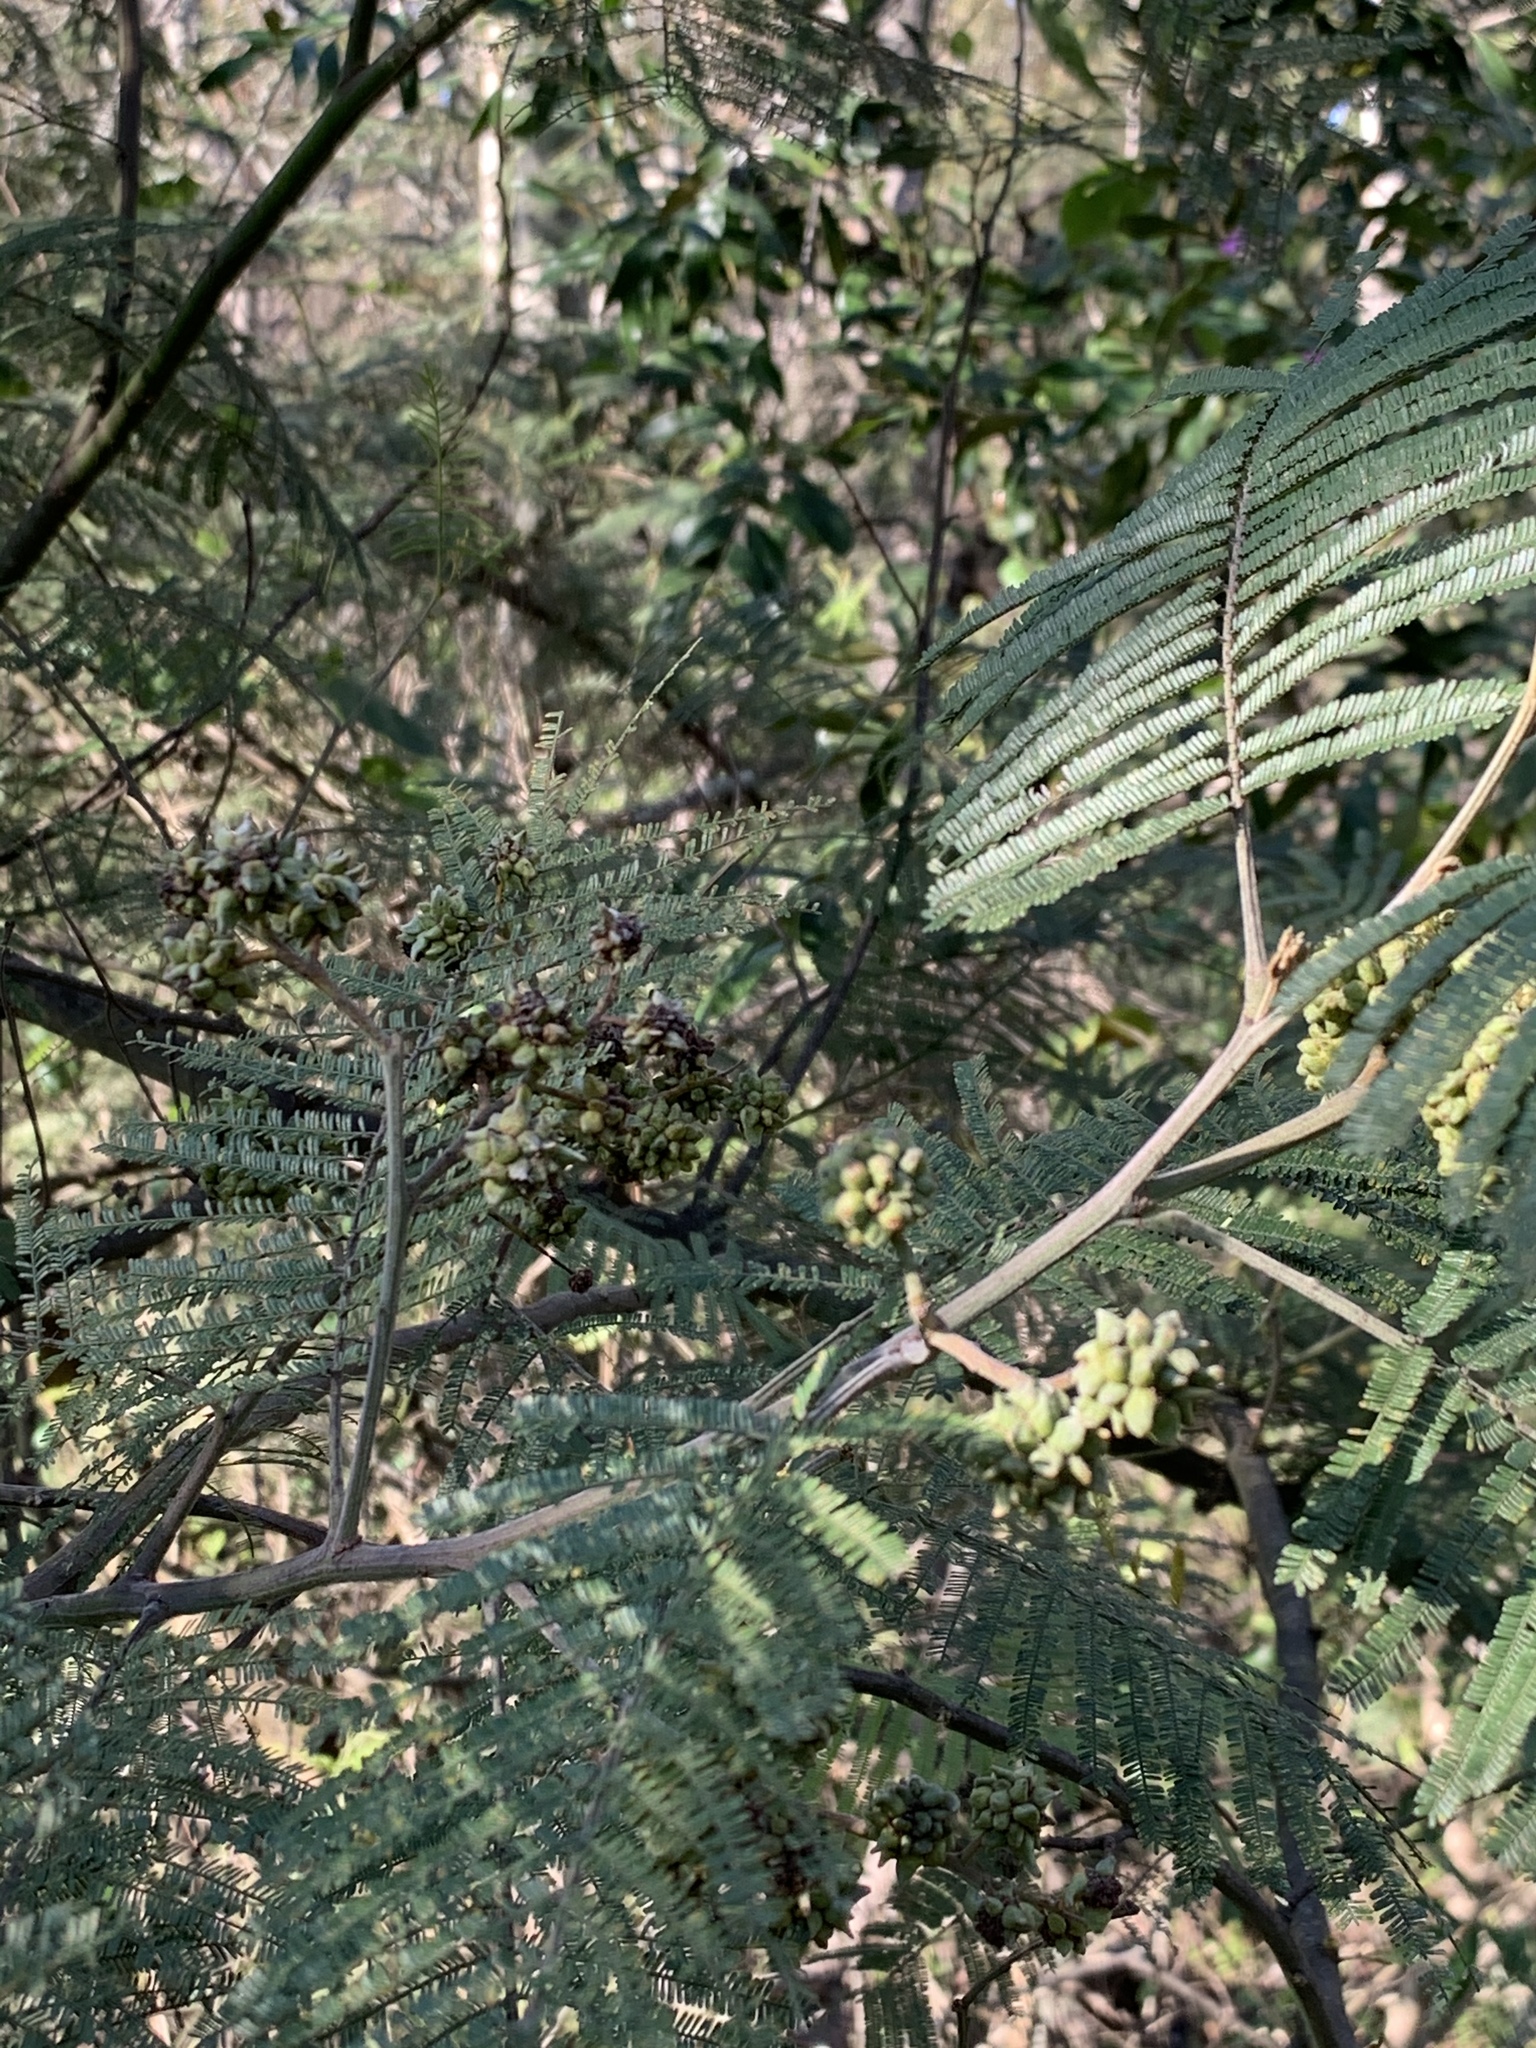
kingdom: Animalia
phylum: Arthropoda
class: Insecta
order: Diptera
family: Cecidomyiidae
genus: Dasineura
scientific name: Dasineura rubiformis
